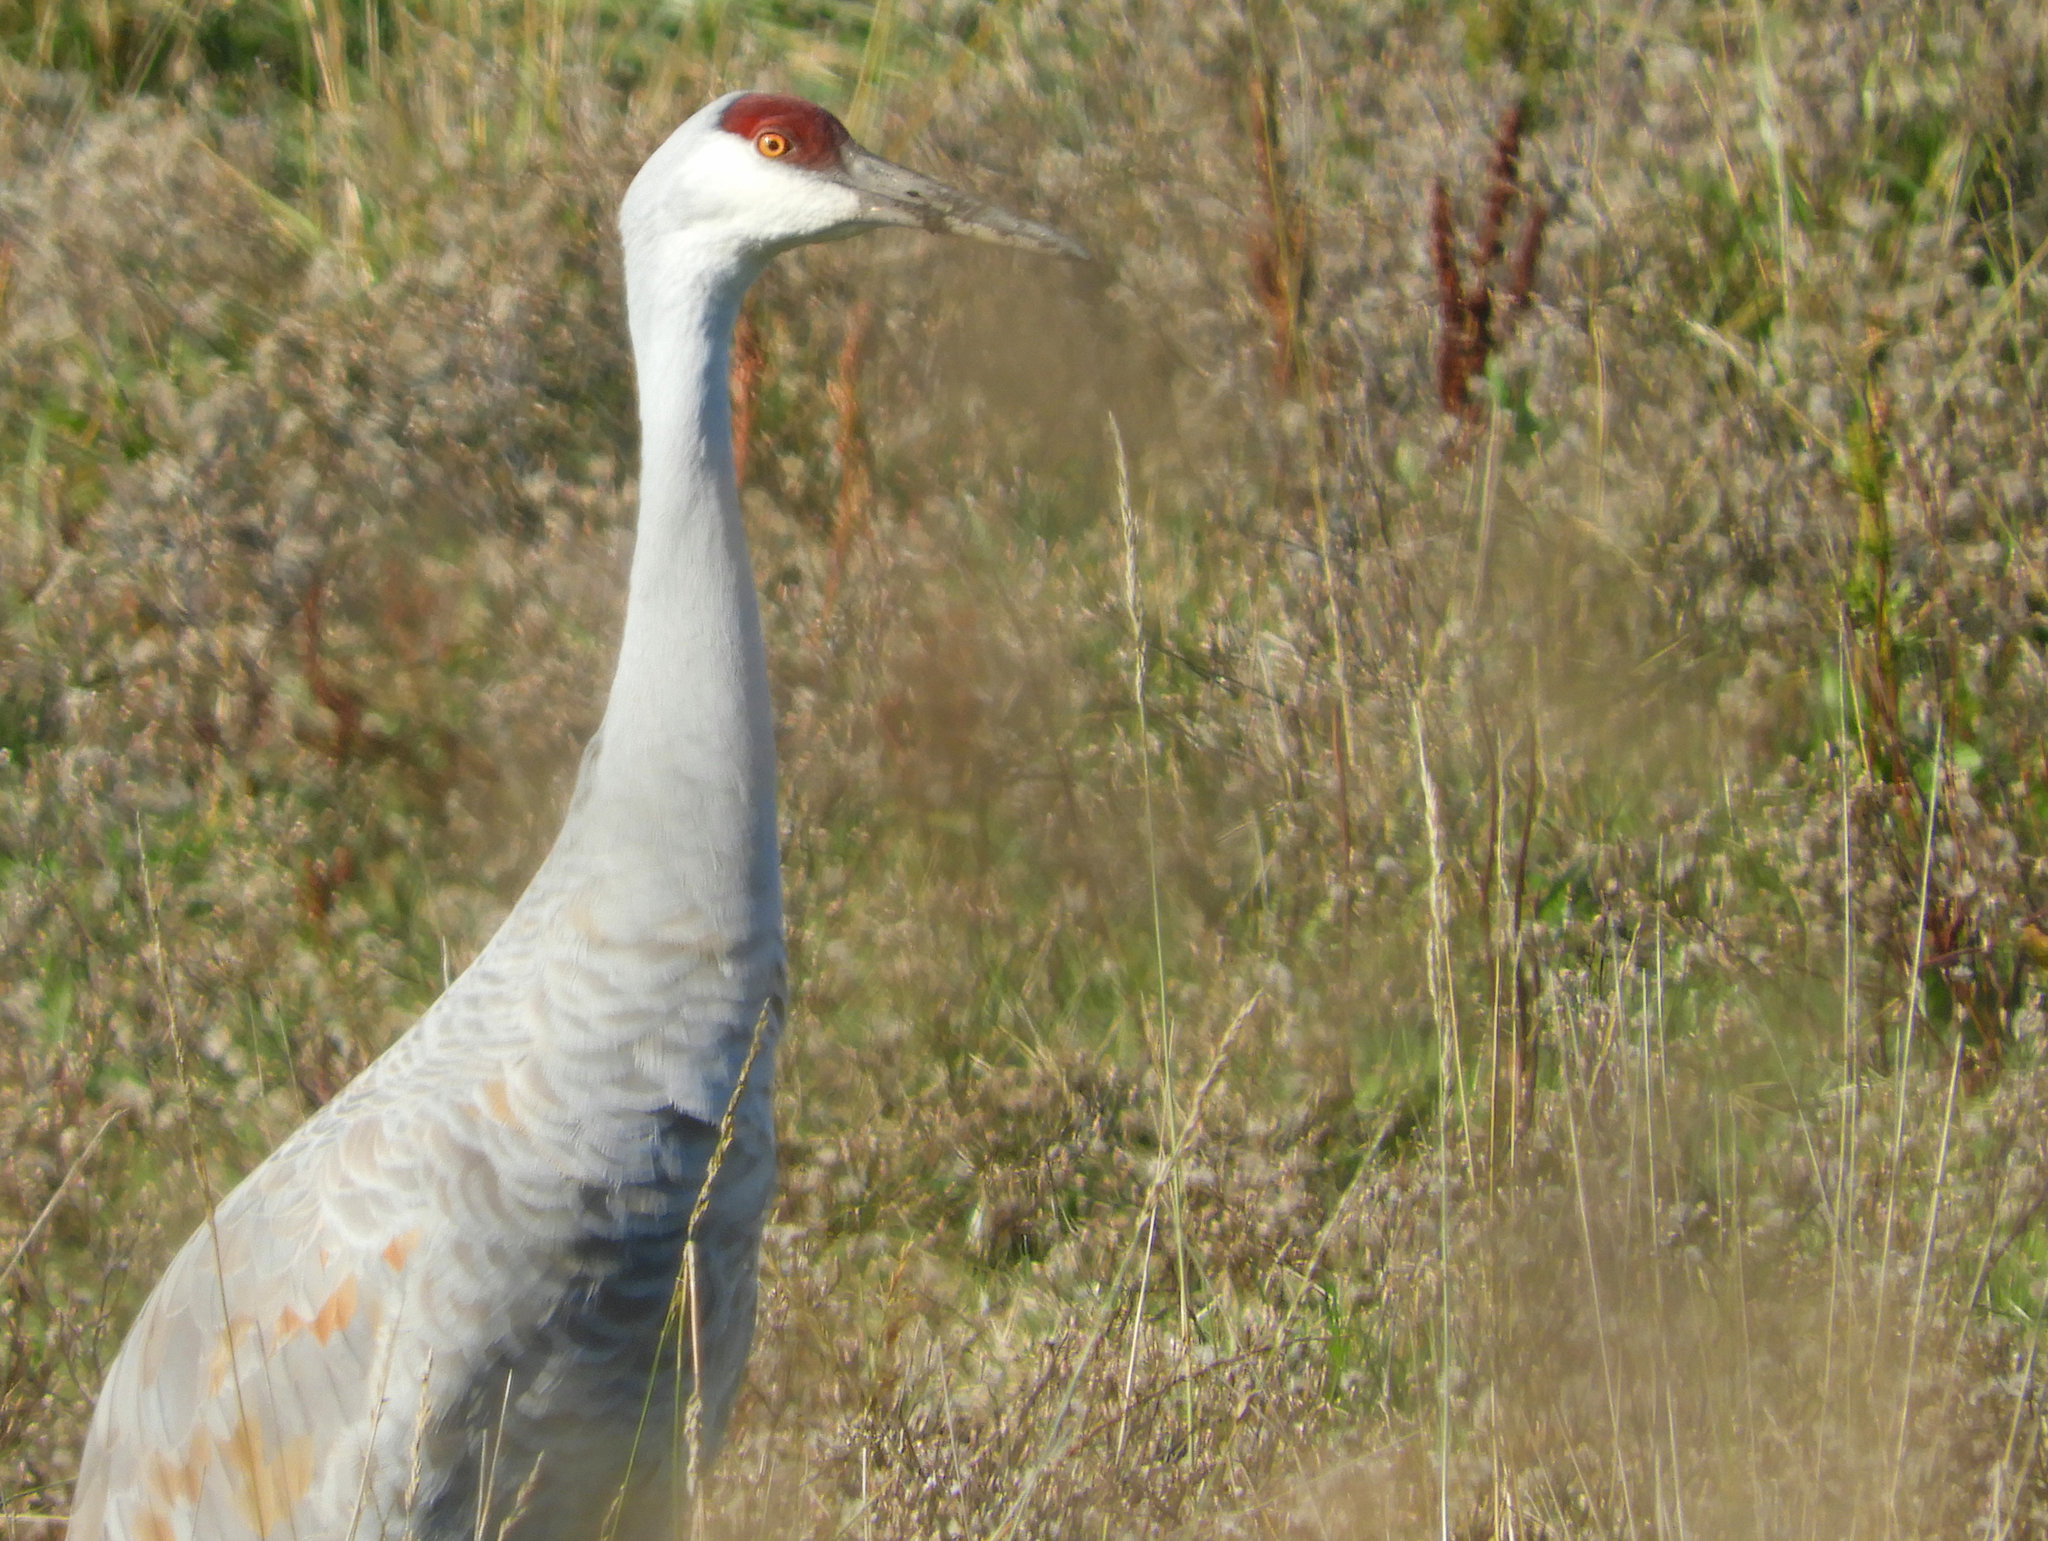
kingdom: Animalia
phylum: Chordata
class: Aves
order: Gruiformes
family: Gruidae
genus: Grus
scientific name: Grus canadensis
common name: Sandhill crane
